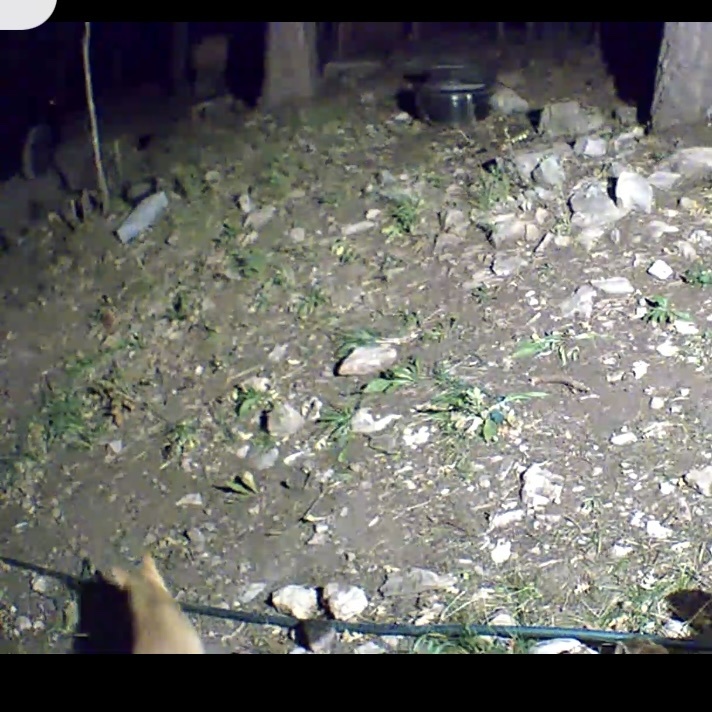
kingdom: Animalia
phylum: Chordata
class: Mammalia
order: Carnivora
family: Felidae
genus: Felis
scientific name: Felis catus
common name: Domestic cat
